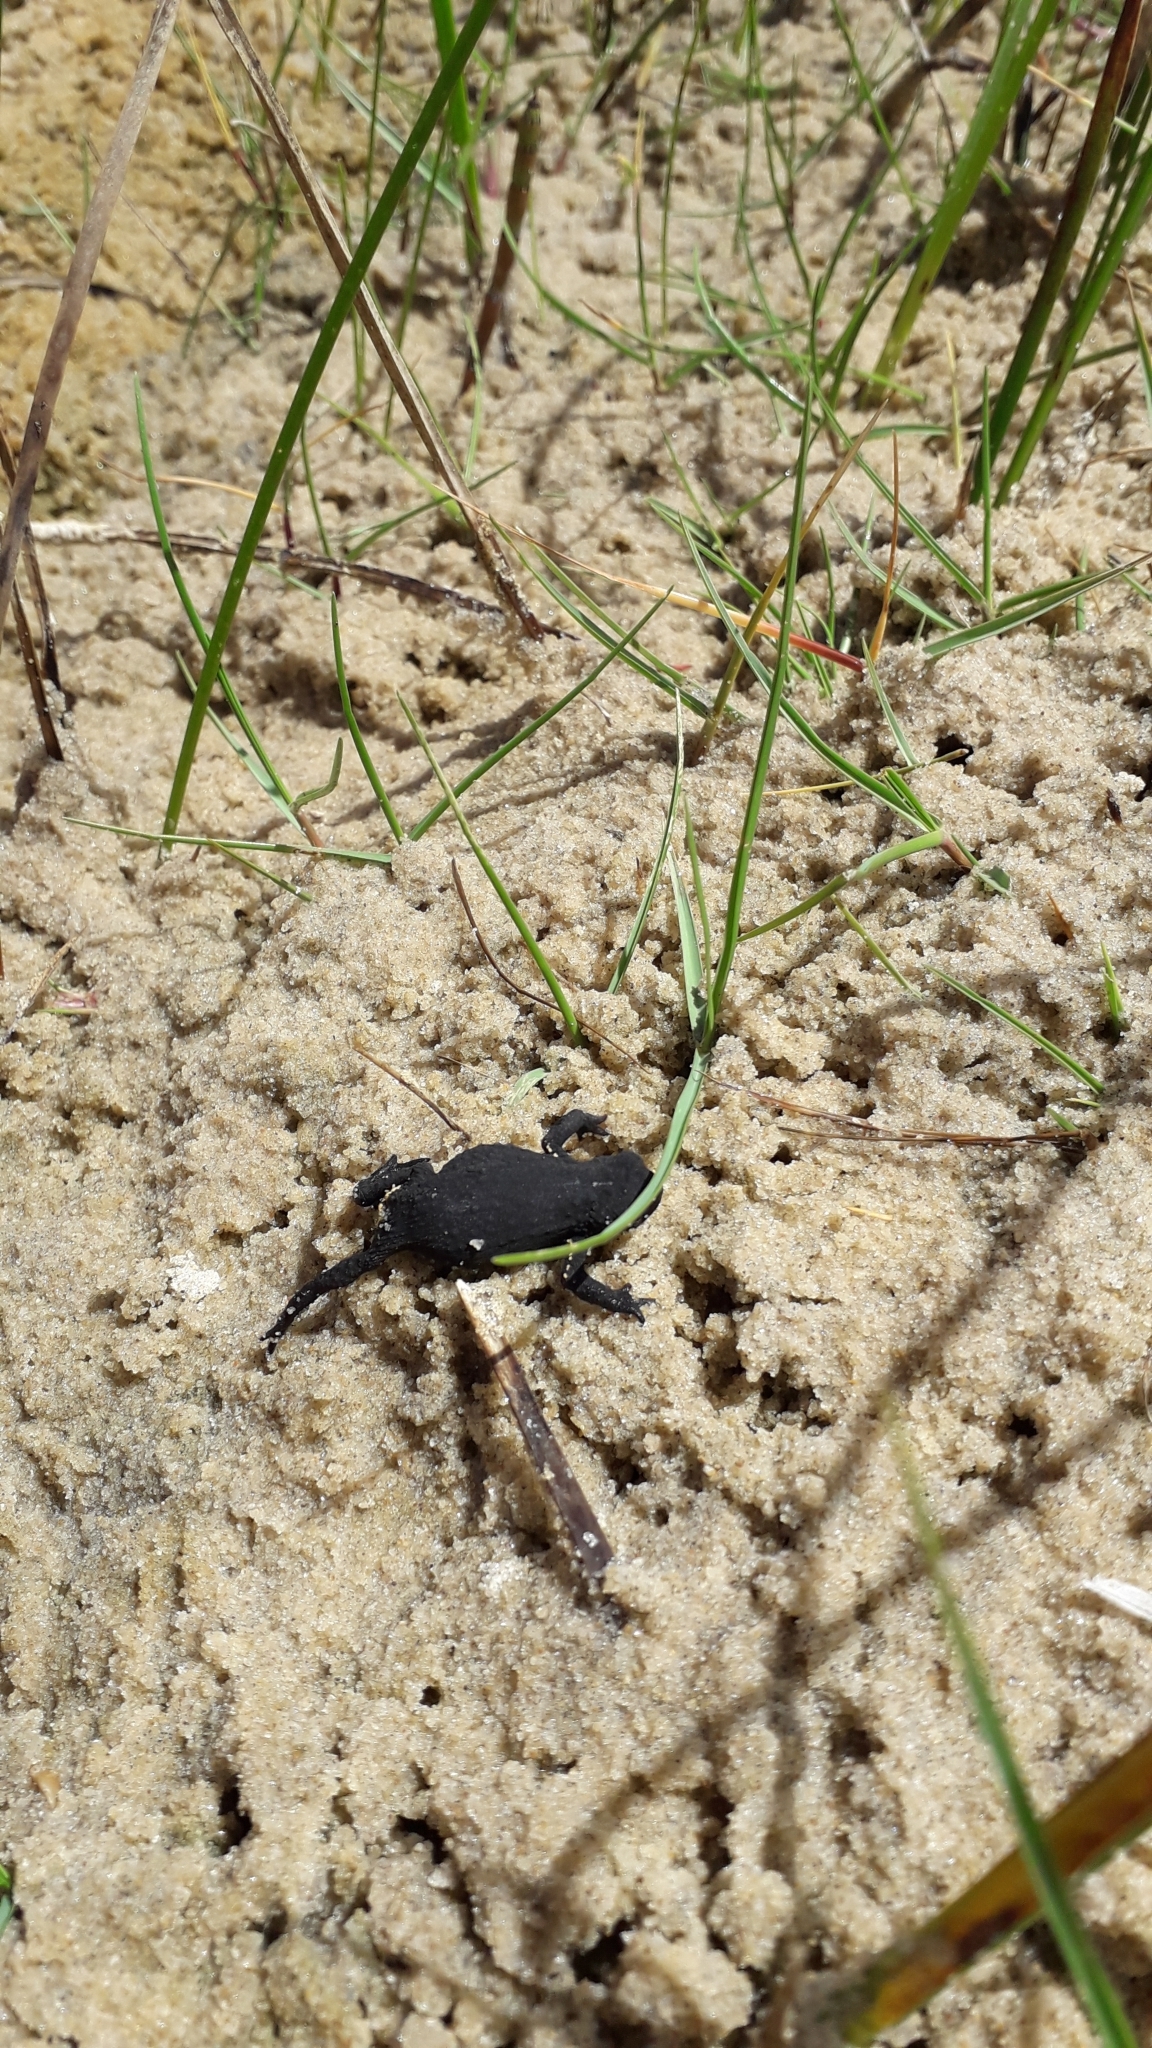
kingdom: Animalia
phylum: Chordata
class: Amphibia
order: Anura
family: Bufonidae
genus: Melanophryniscus
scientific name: Melanophryniscus montevidensis
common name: Montevideo redbelly toad
